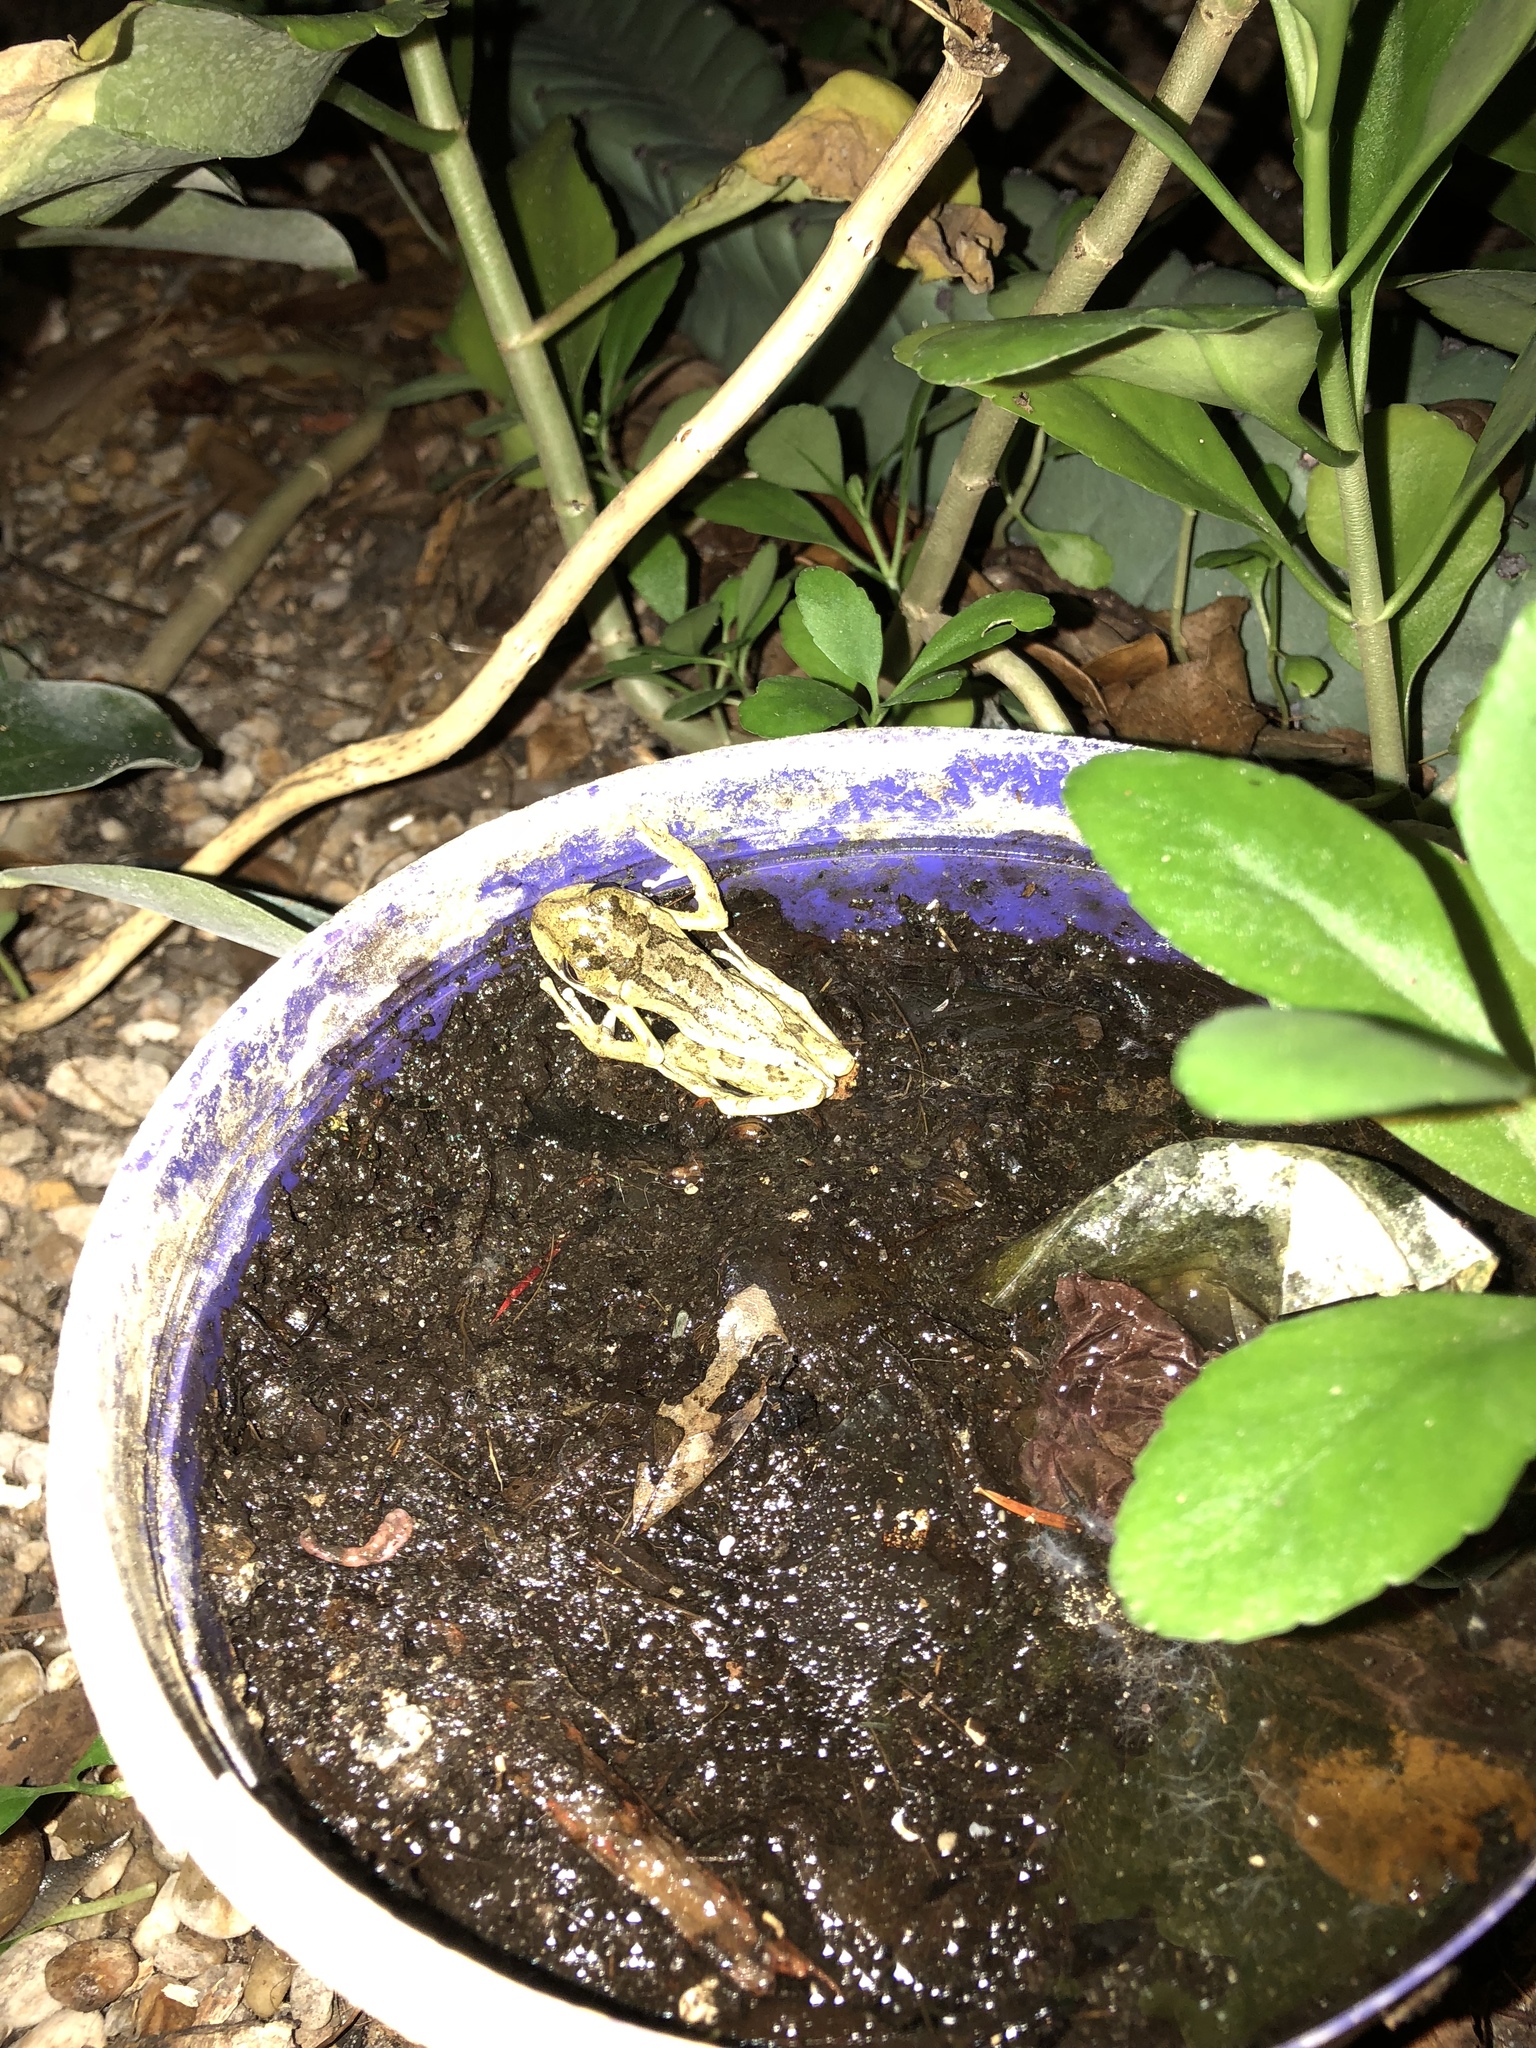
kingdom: Animalia
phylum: Chordata
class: Amphibia
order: Anura
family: Hylidae
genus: Osteopilus
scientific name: Osteopilus septentrionalis
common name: Cuban treefrog
